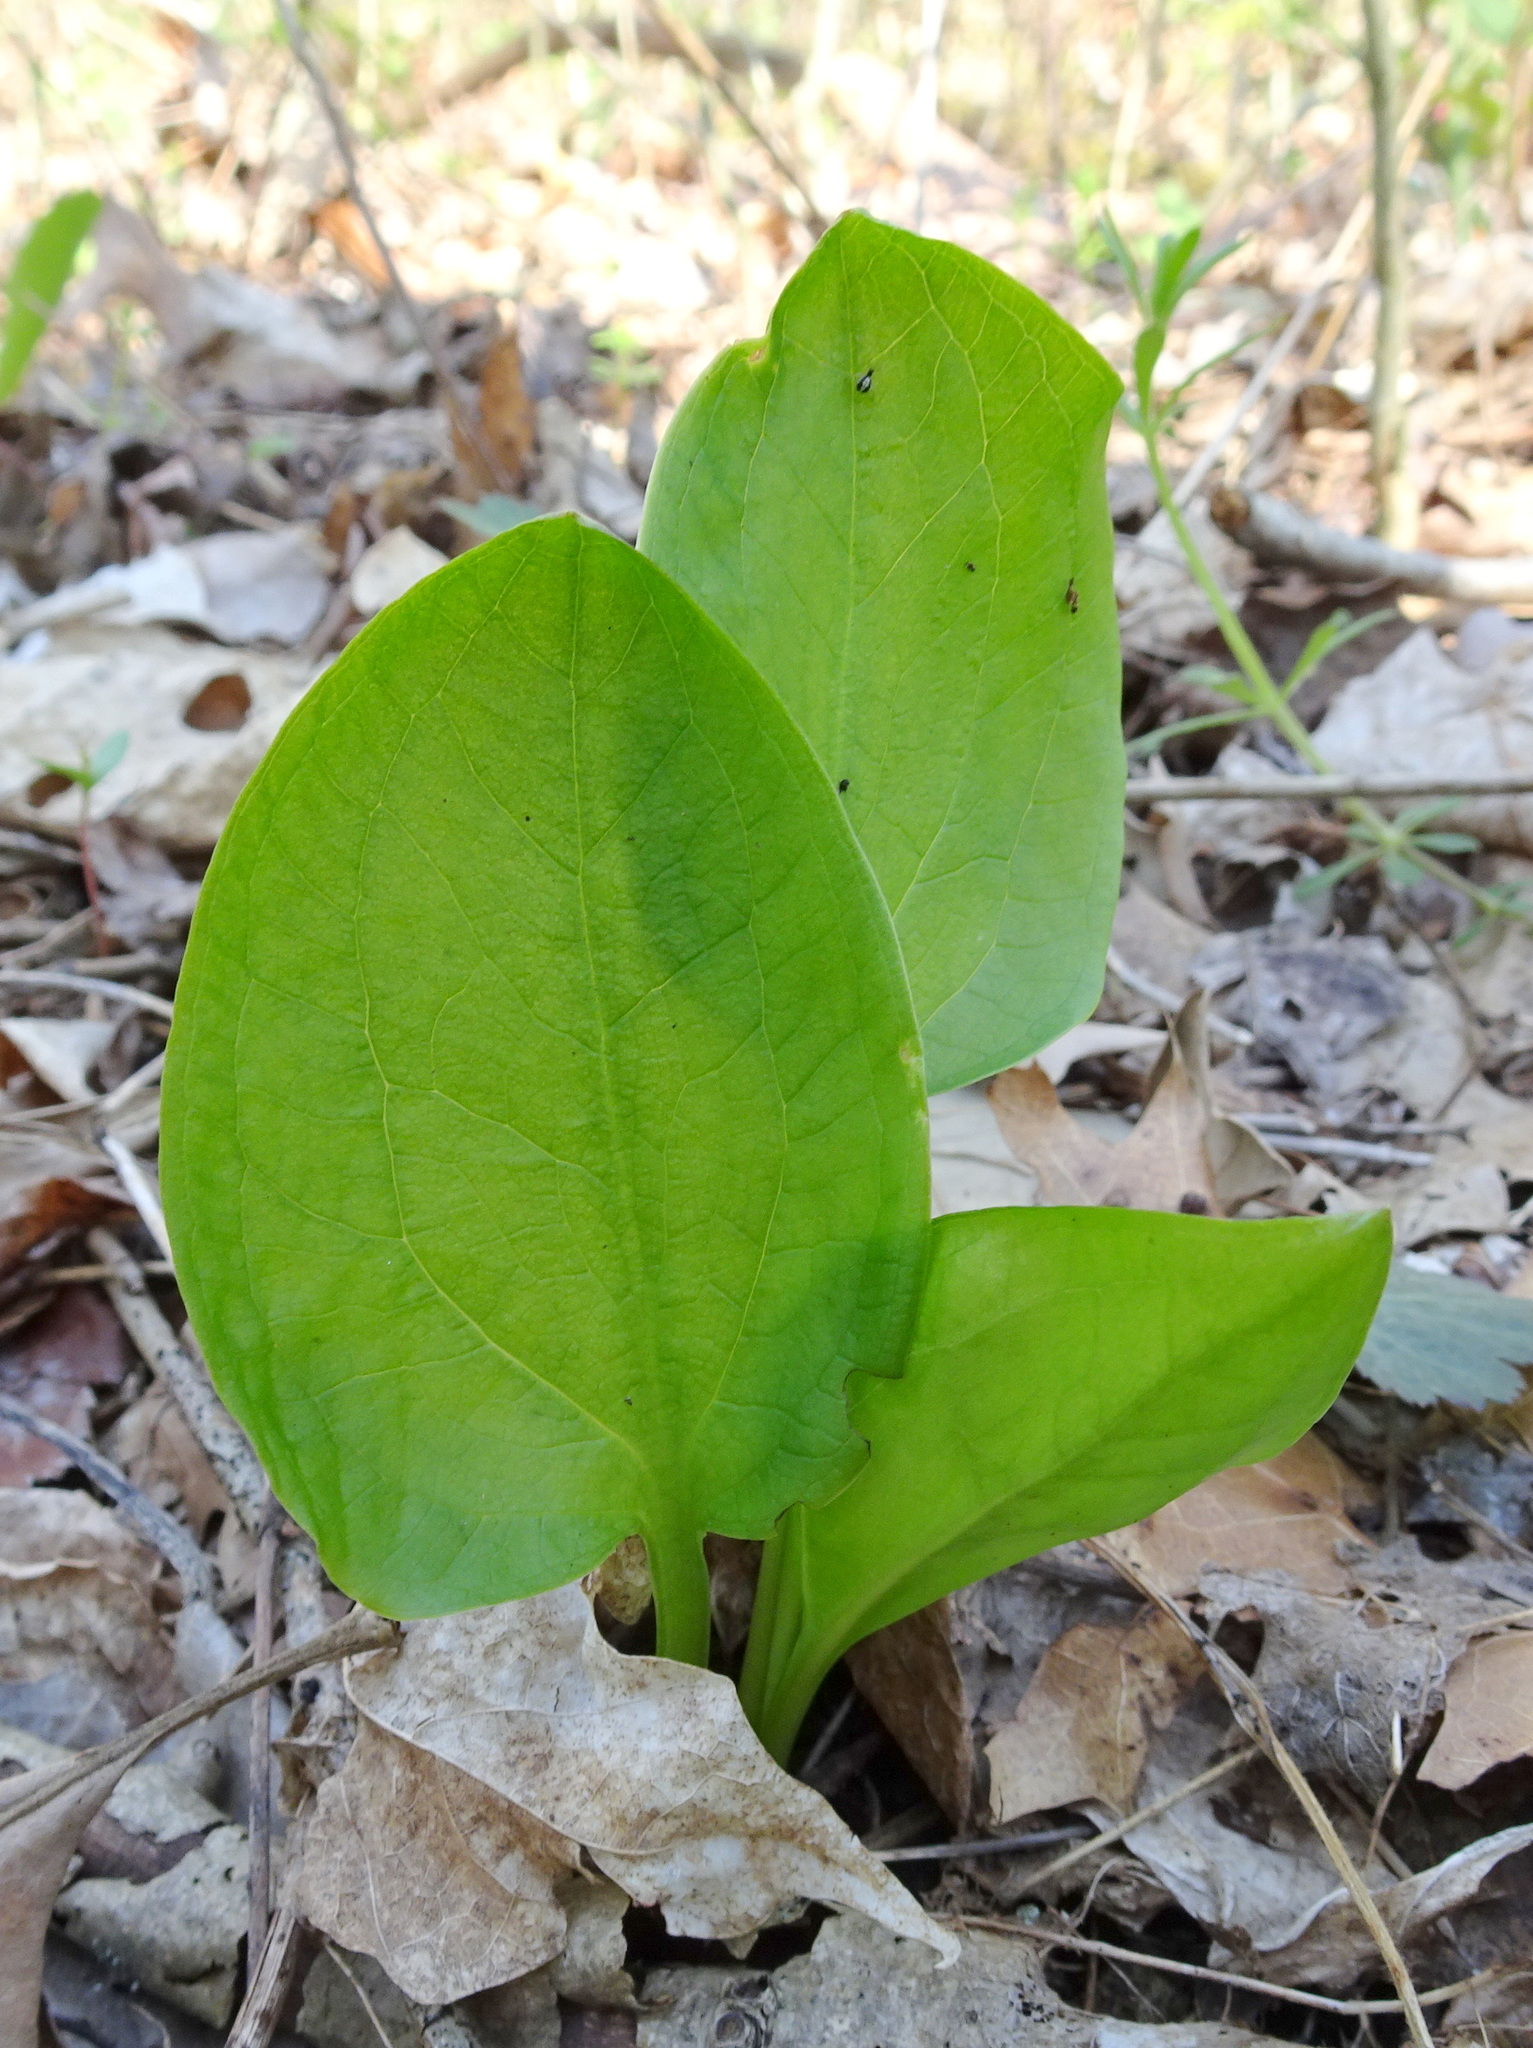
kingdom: Plantae
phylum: Tracheophyta
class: Liliopsida
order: Alismatales
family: Araceae
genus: Symplocarpus
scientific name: Symplocarpus foetidus
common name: Eastern skunk cabbage
